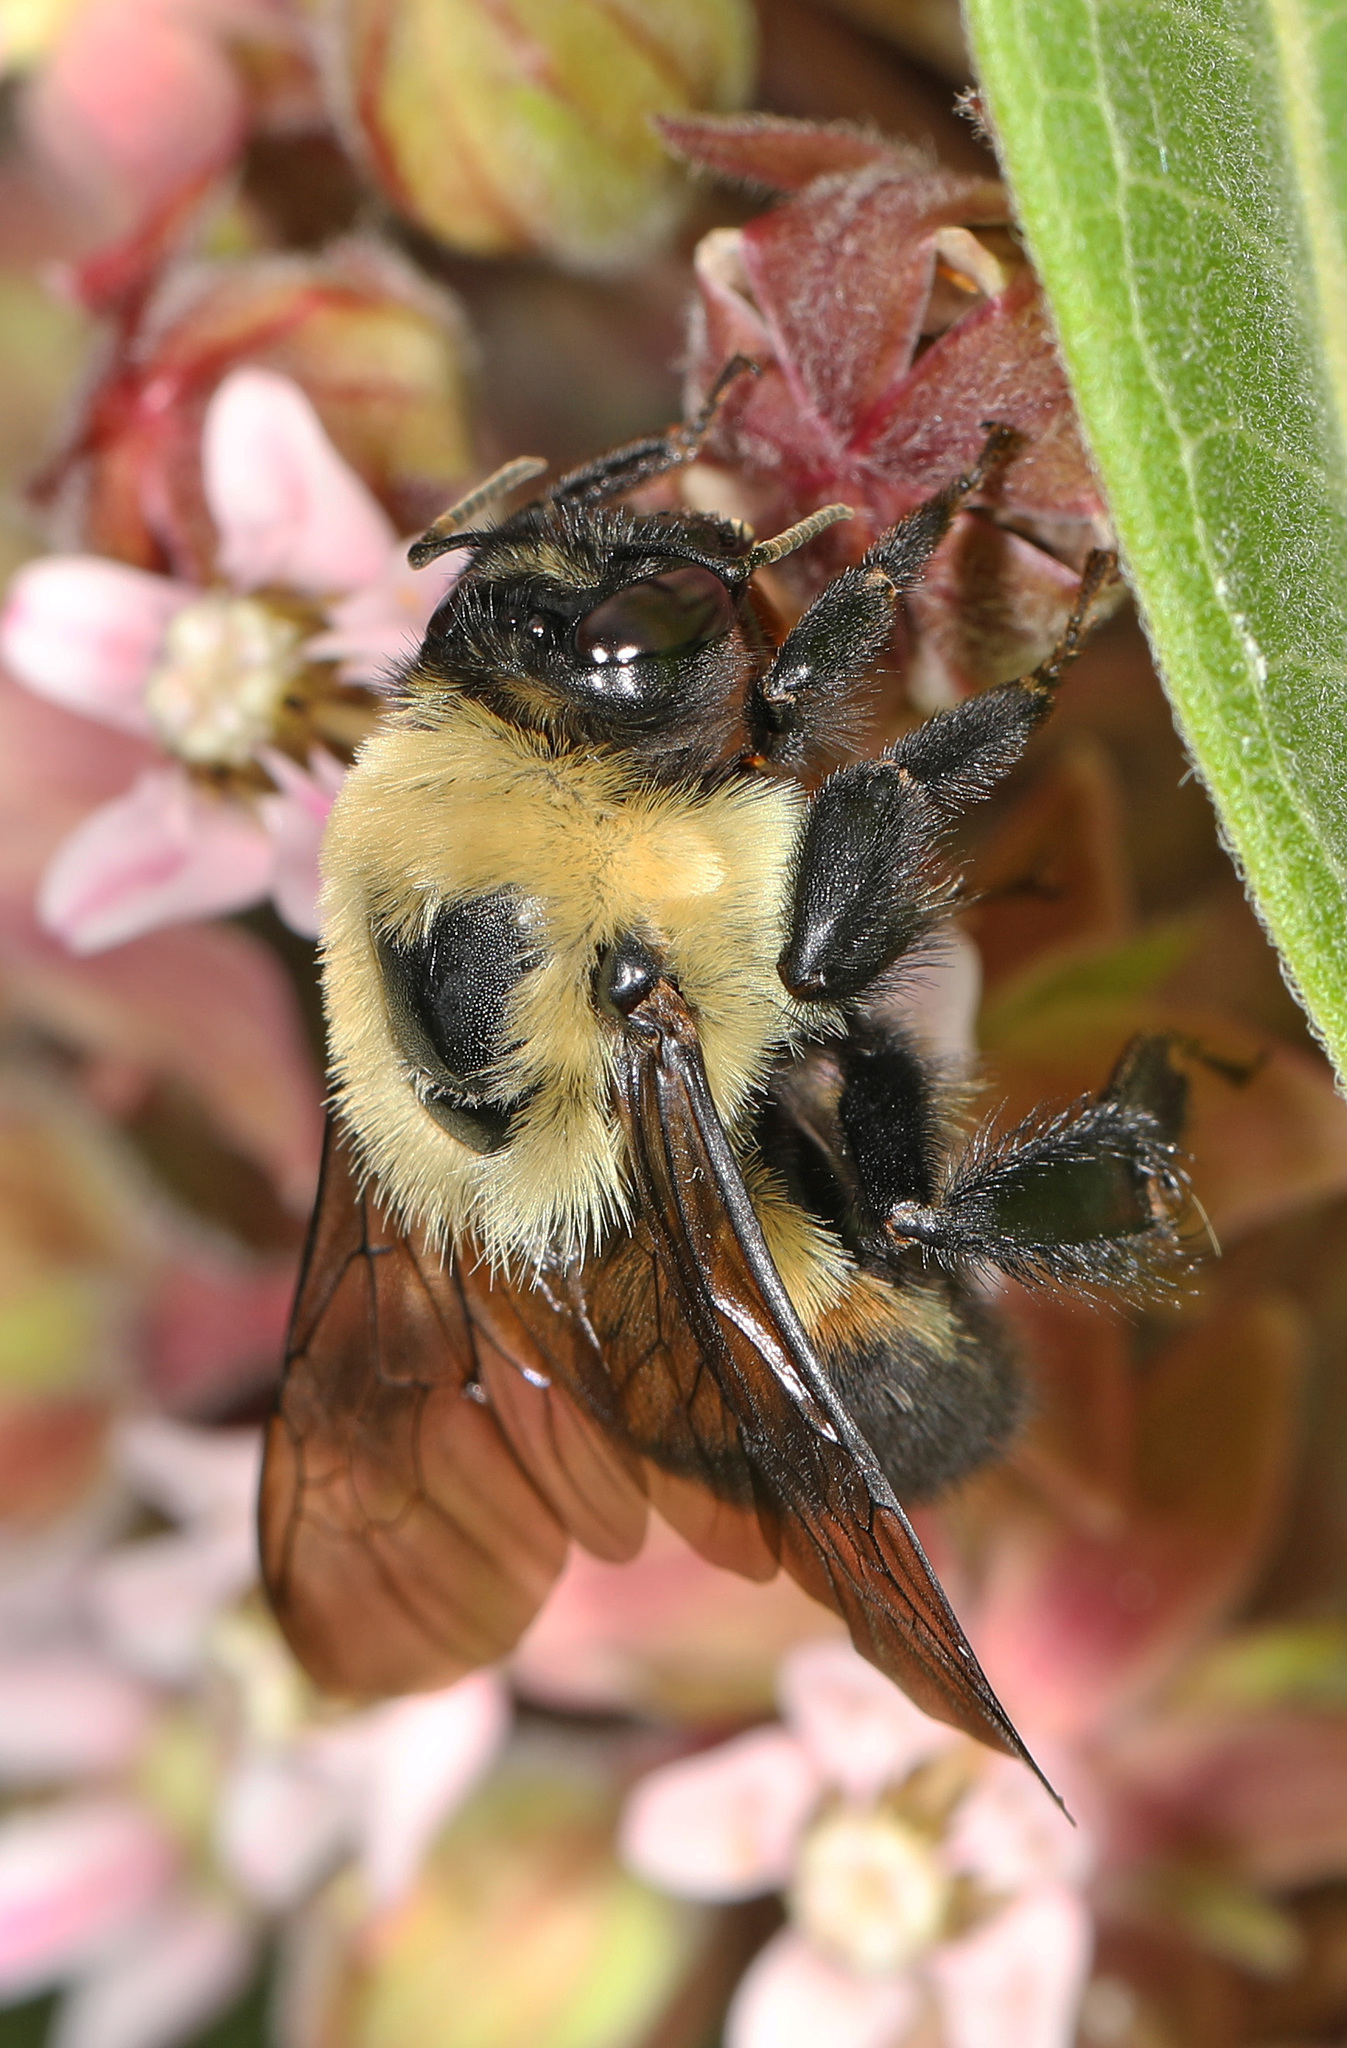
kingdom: Animalia
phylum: Arthropoda
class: Insecta
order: Hymenoptera
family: Apidae
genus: Bombus
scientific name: Bombus griseocollis
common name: Brown-belted bumble bee
